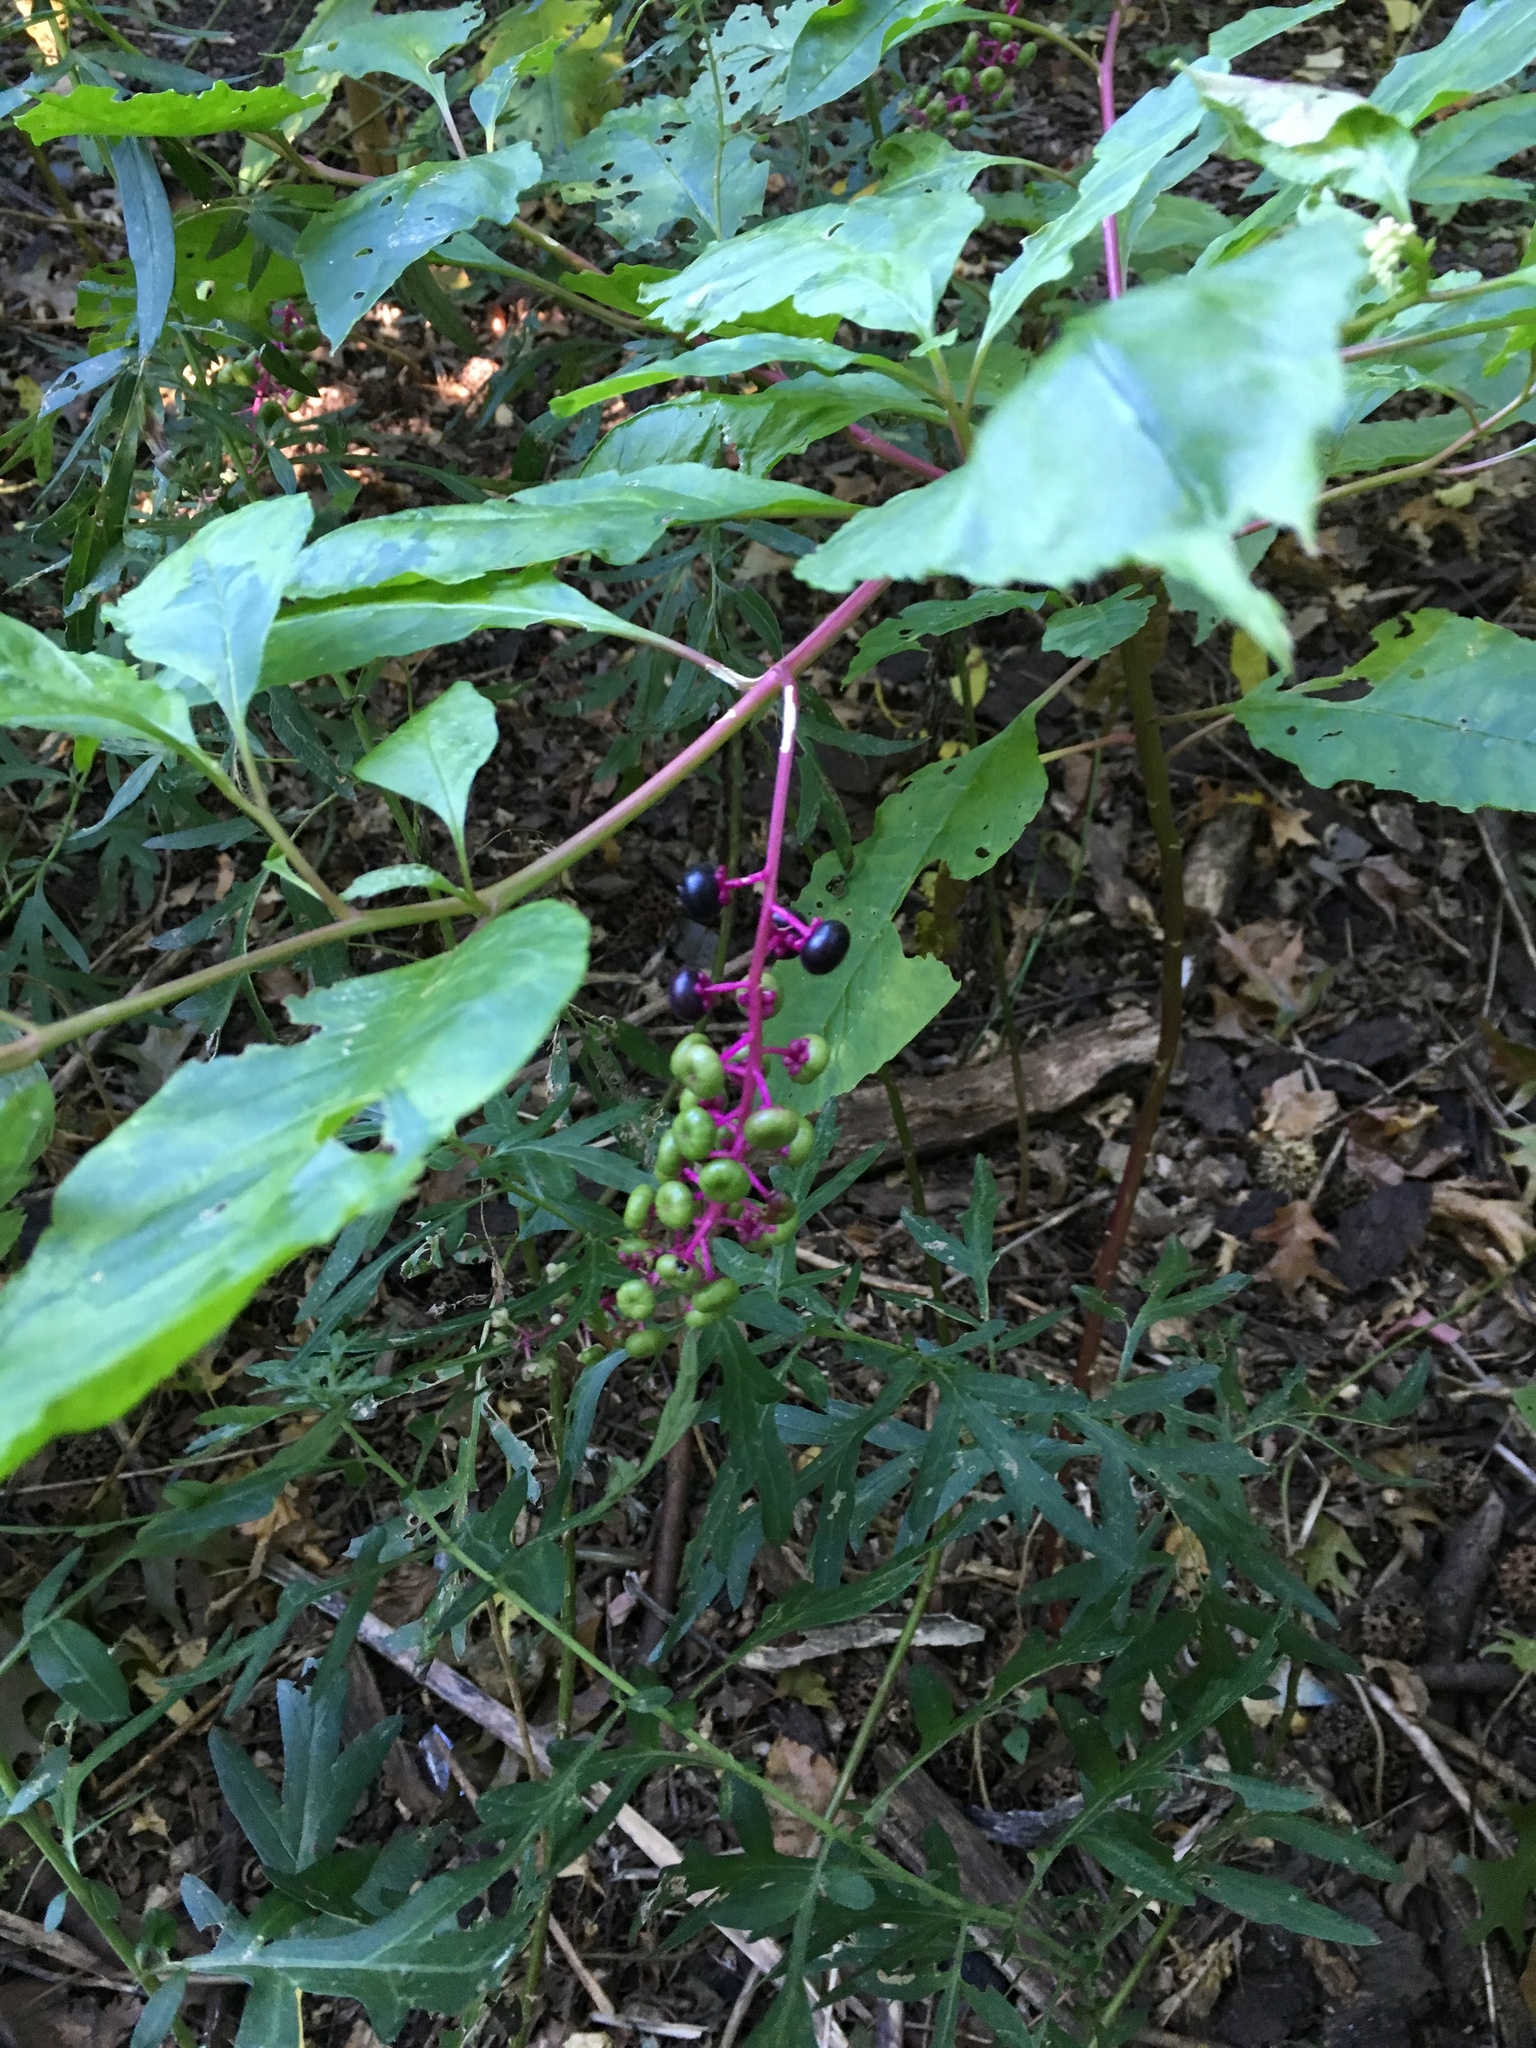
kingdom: Plantae
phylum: Tracheophyta
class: Magnoliopsida
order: Caryophyllales
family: Phytolaccaceae
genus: Phytolacca
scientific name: Phytolacca americana
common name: American pokeweed
